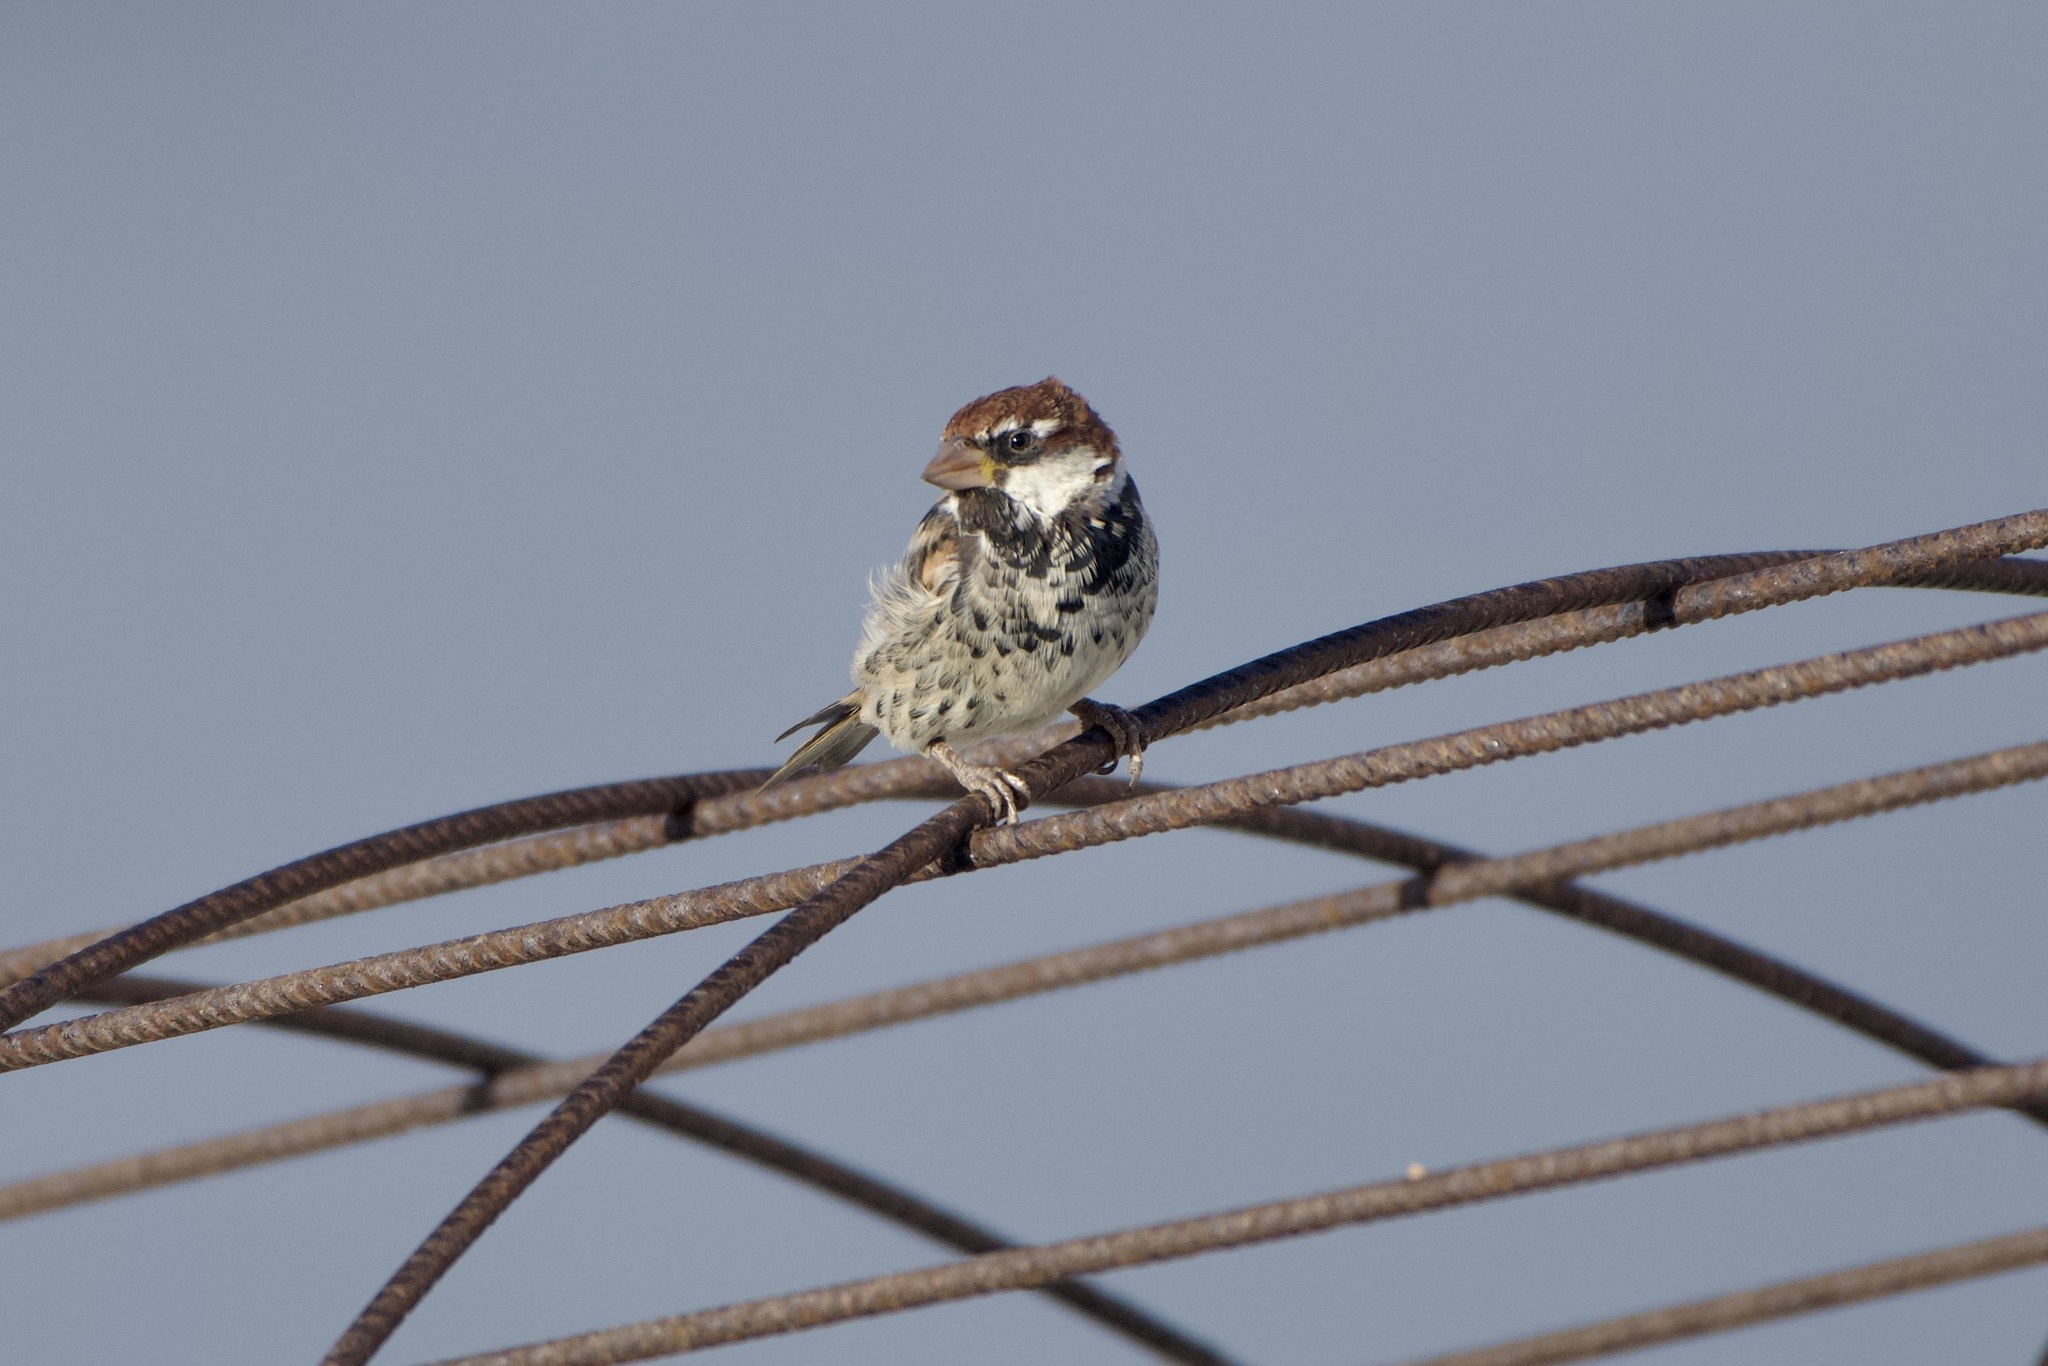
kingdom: Animalia
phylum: Chordata
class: Aves
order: Passeriformes
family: Passeridae
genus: Passer
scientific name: Passer hispaniolensis
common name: Spanish sparrow
